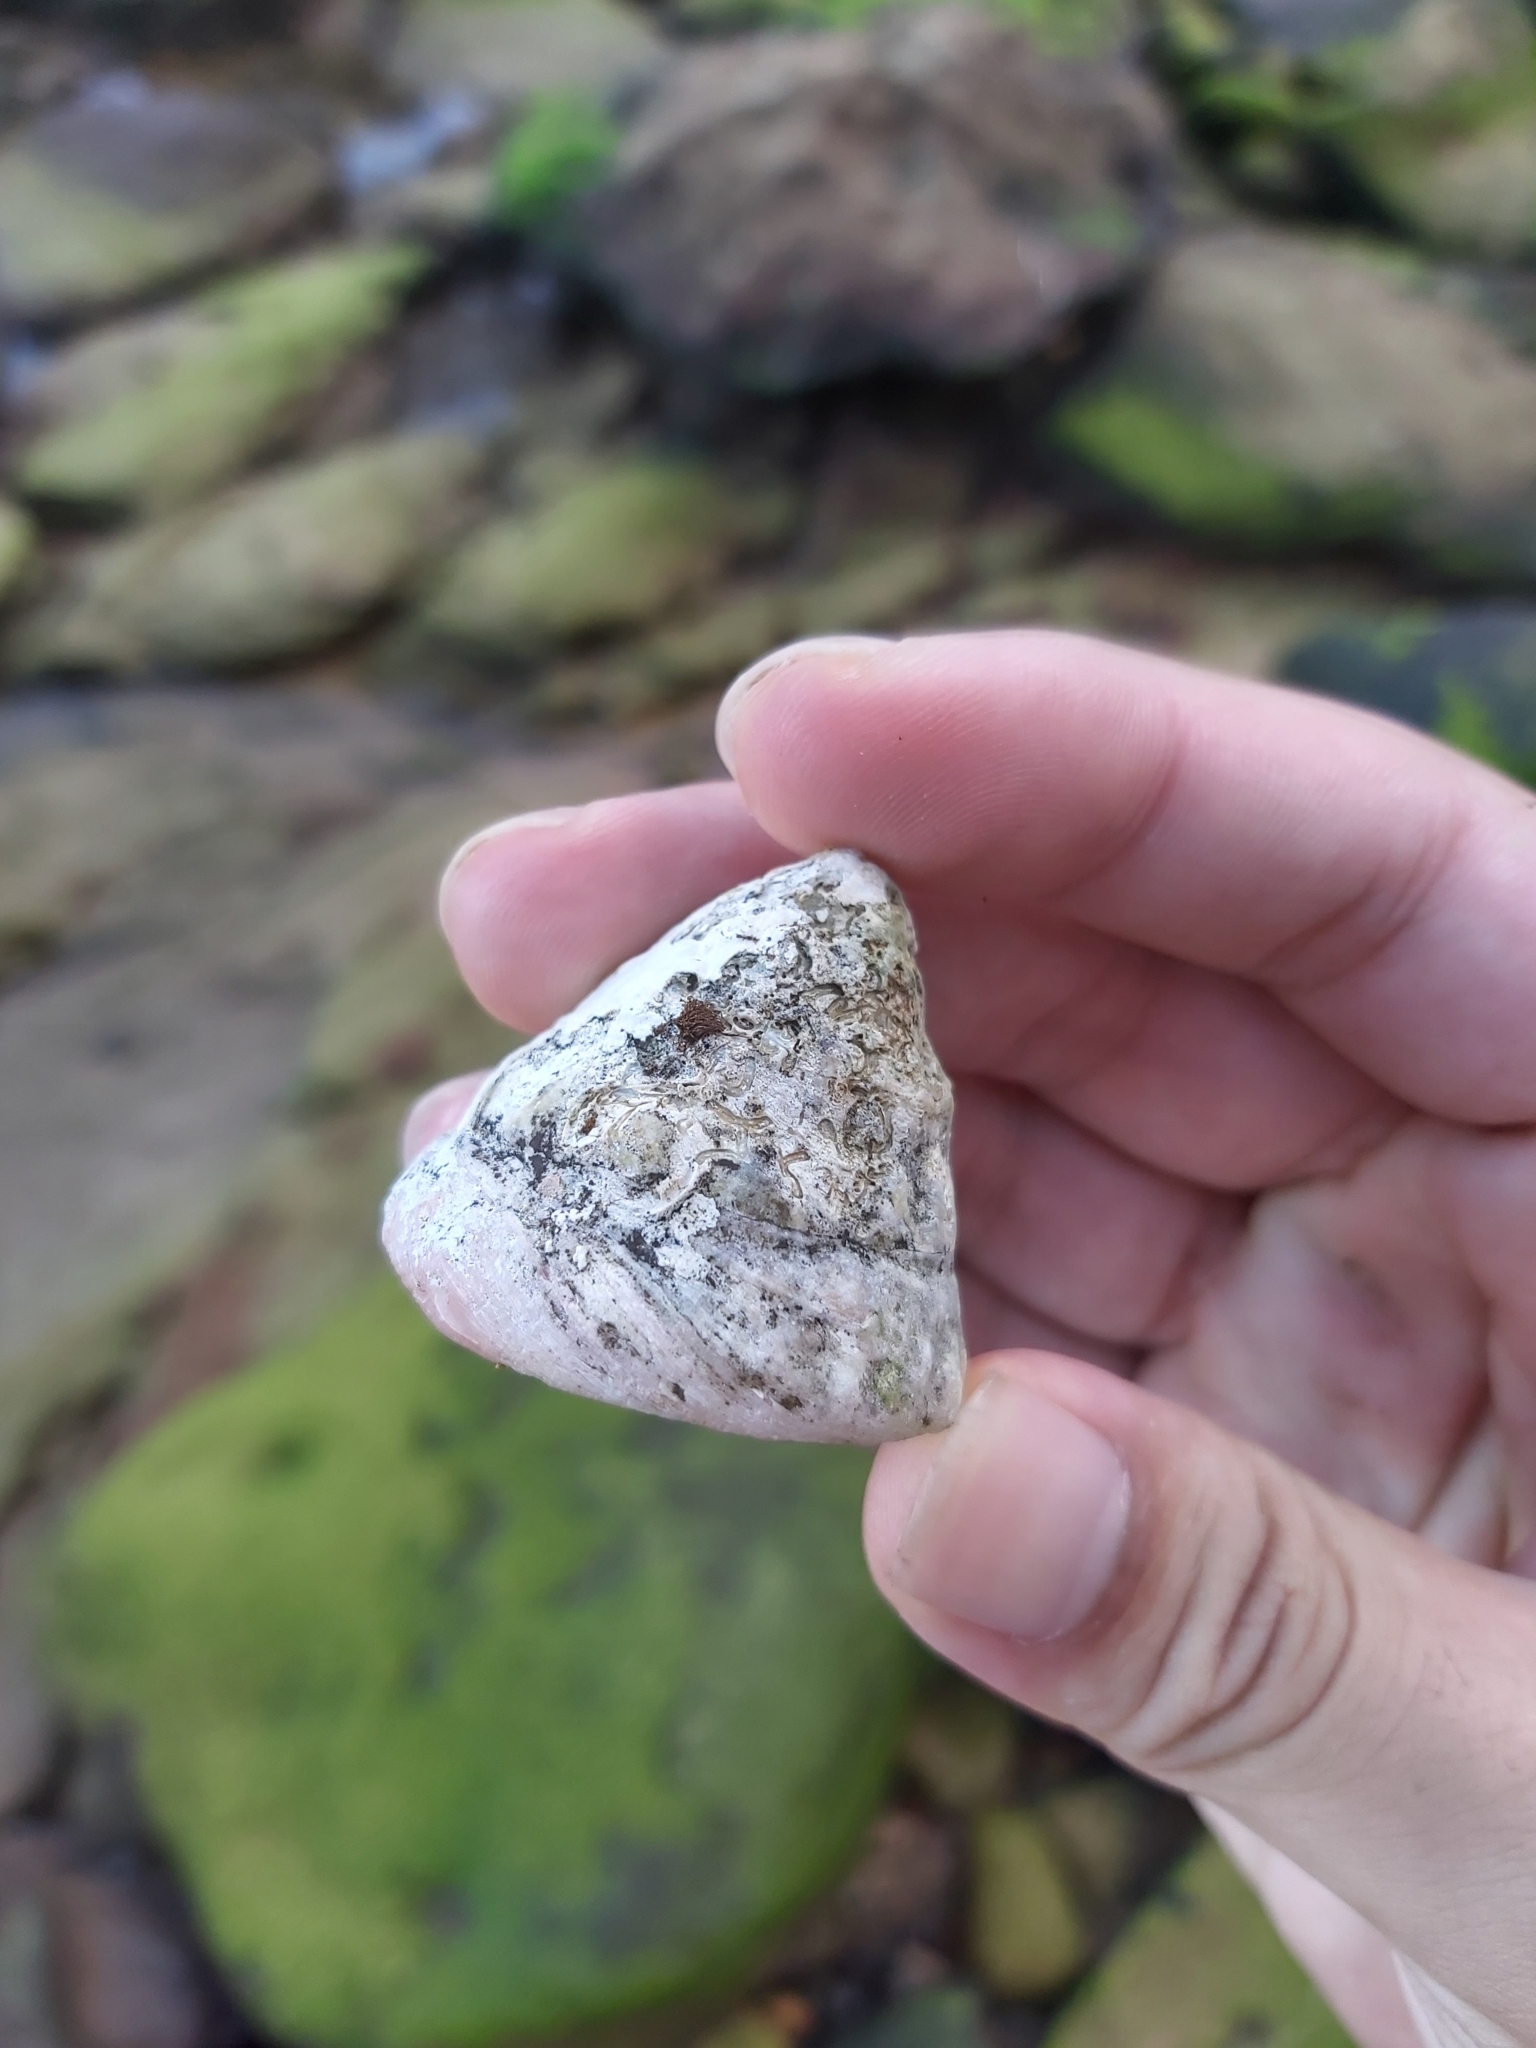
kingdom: Animalia
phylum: Mollusca
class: Gastropoda
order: Trochida
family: Turbinidae
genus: Astralium
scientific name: Astralium tentoriiforme
